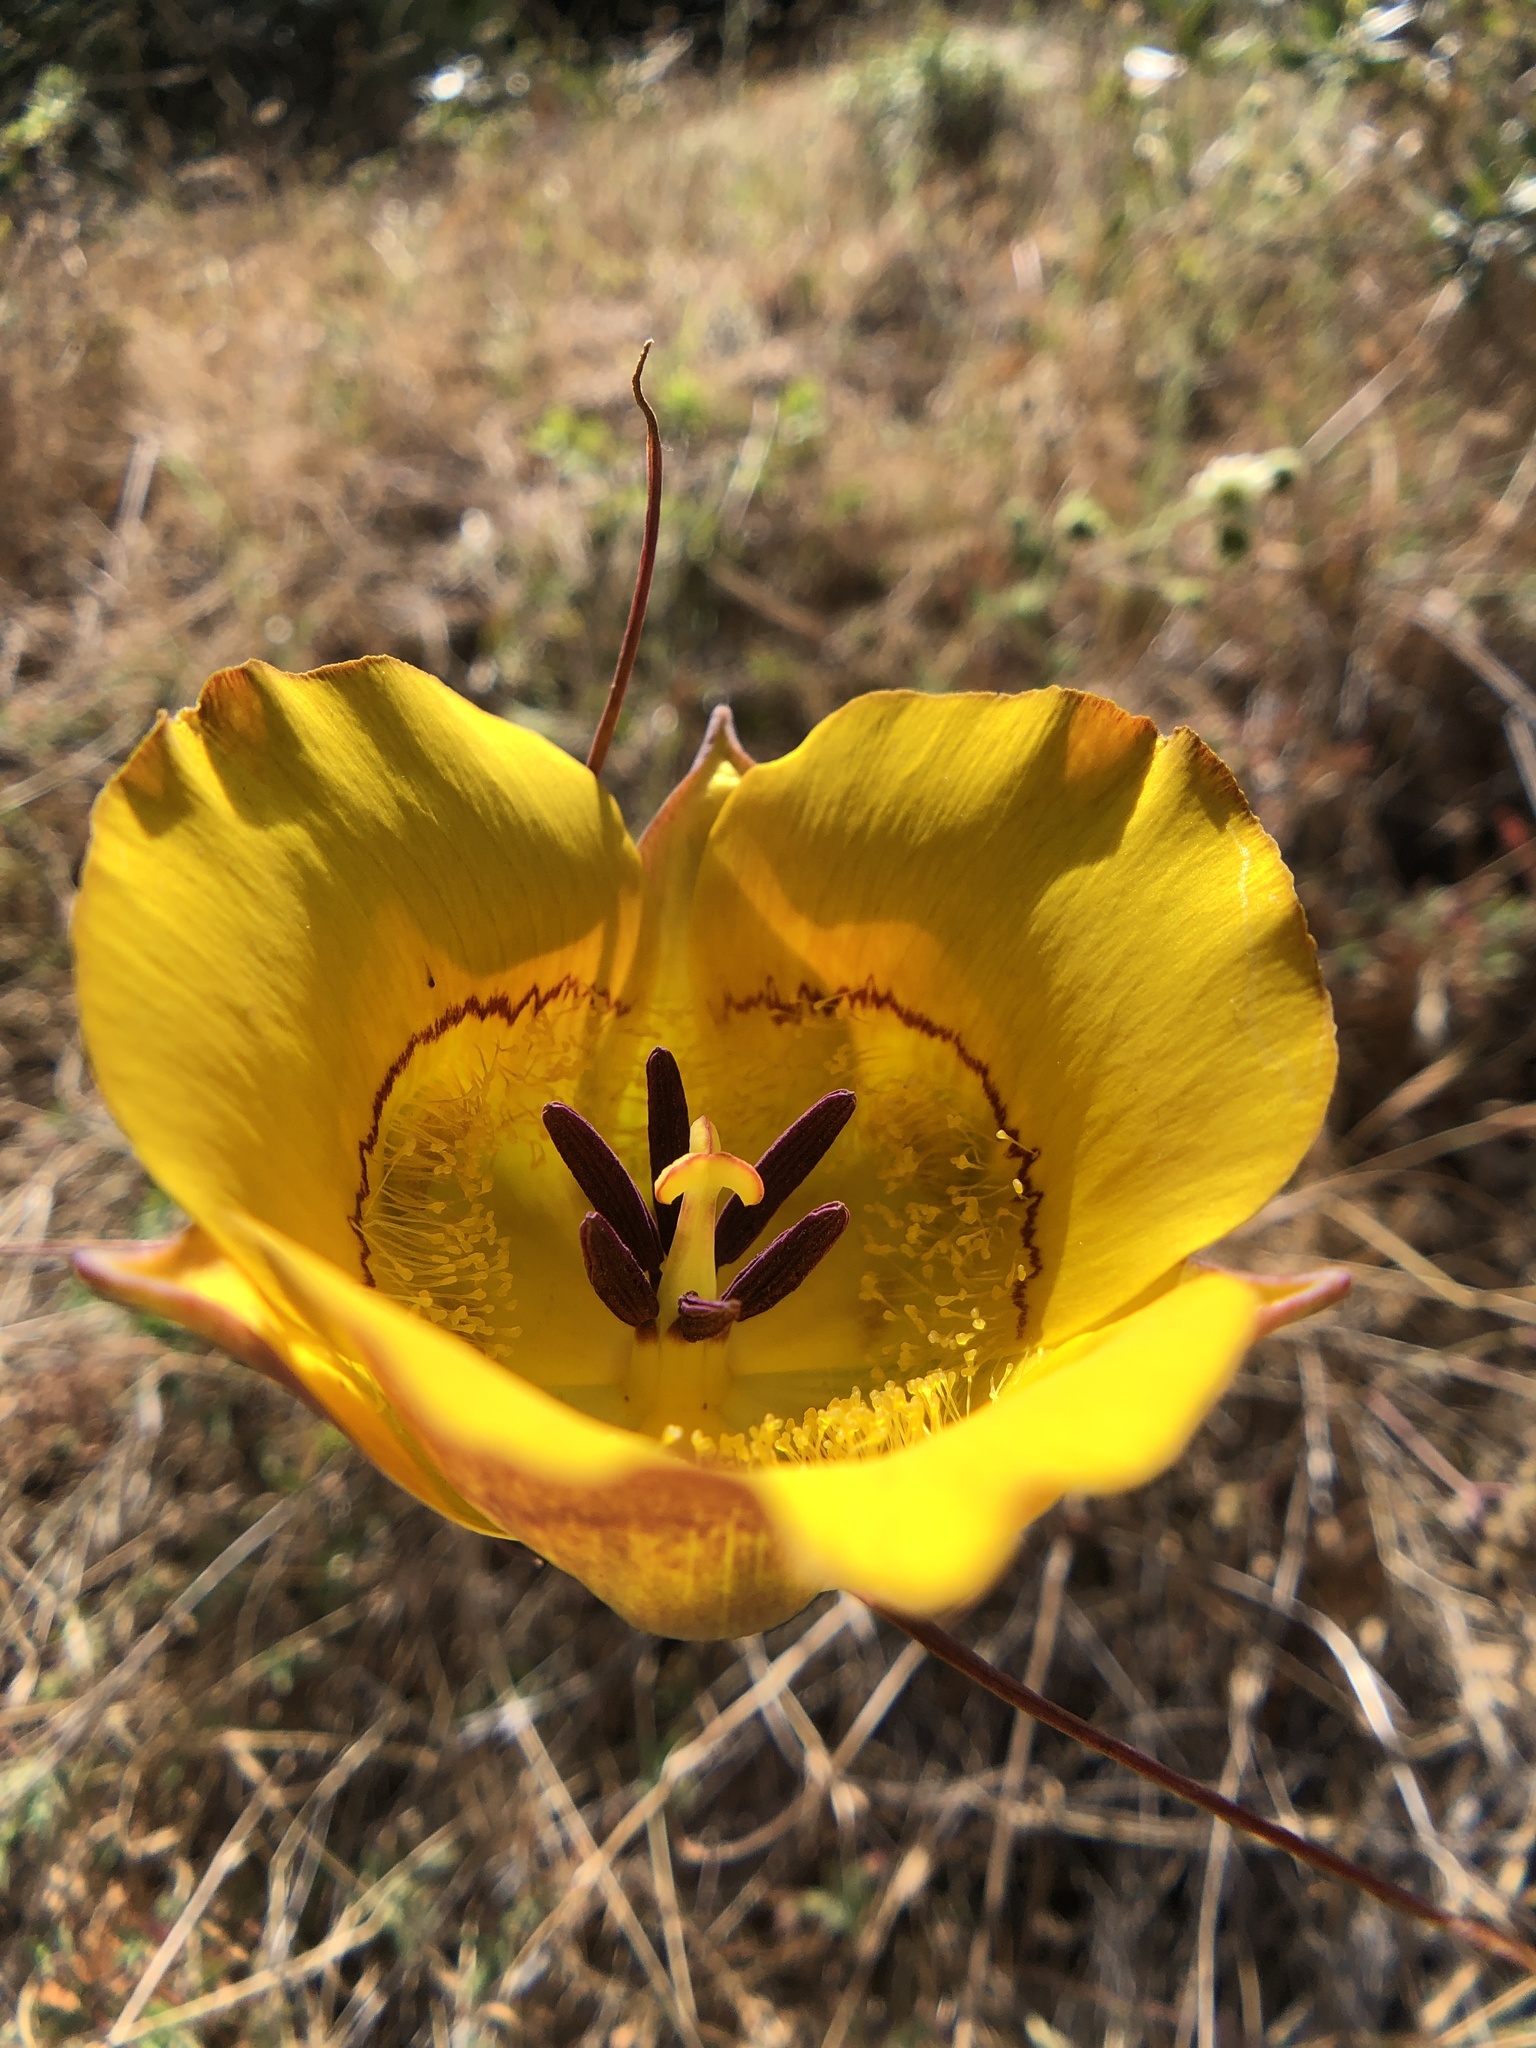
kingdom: Plantae
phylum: Tracheophyta
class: Liliopsida
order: Liliales
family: Liliaceae
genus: Calochortus
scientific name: Calochortus clavatus
